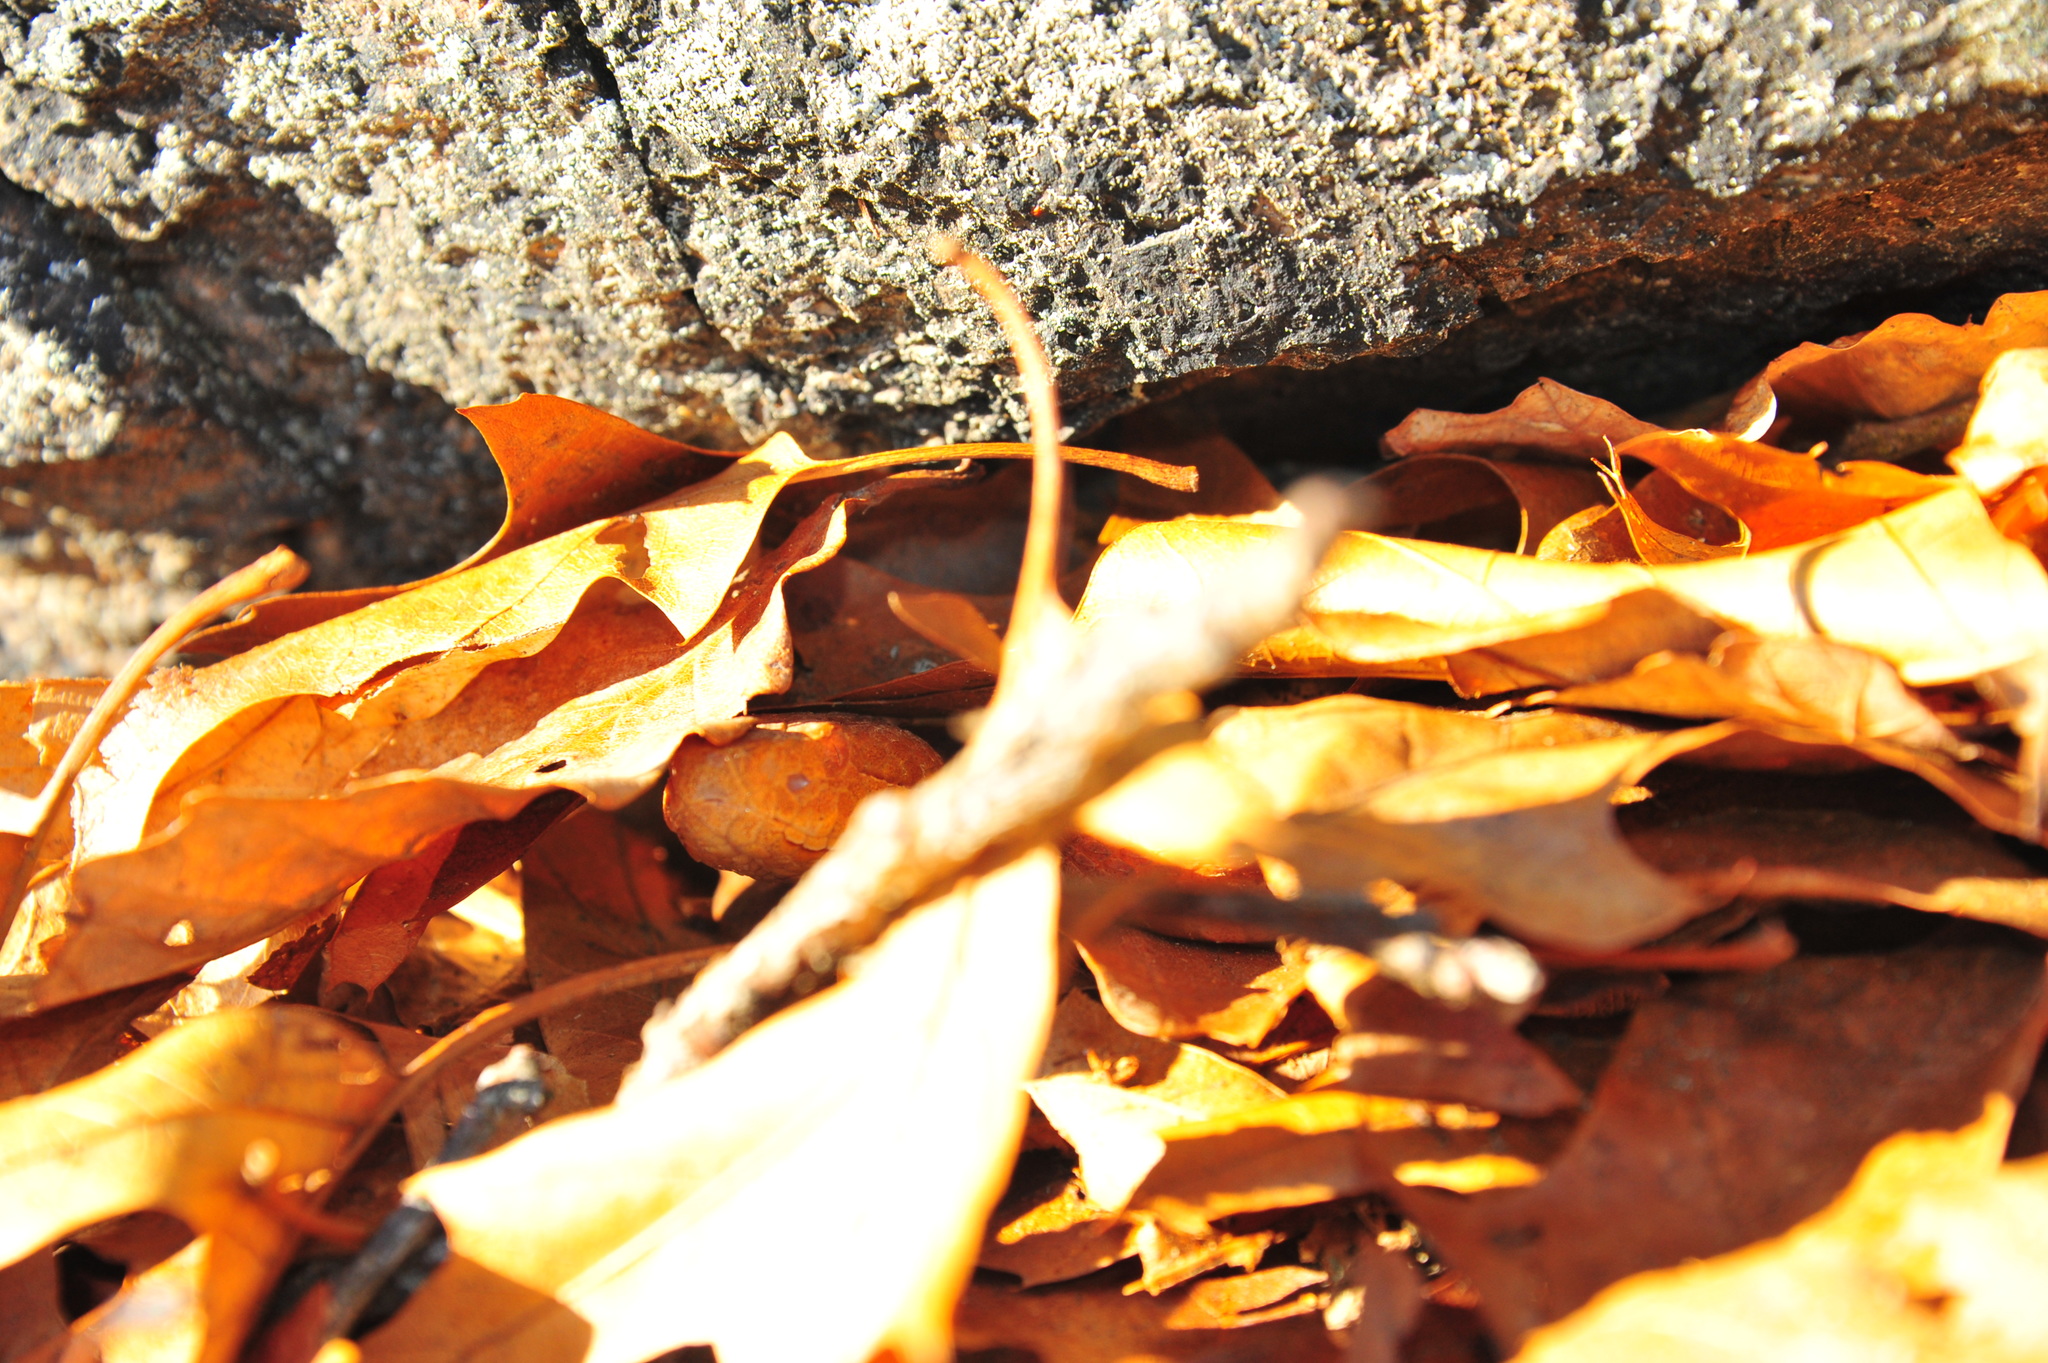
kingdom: Animalia
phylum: Chordata
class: Squamata
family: Viperidae
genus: Agkistrodon
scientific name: Agkistrodon contortrix
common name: Northern copperhead
